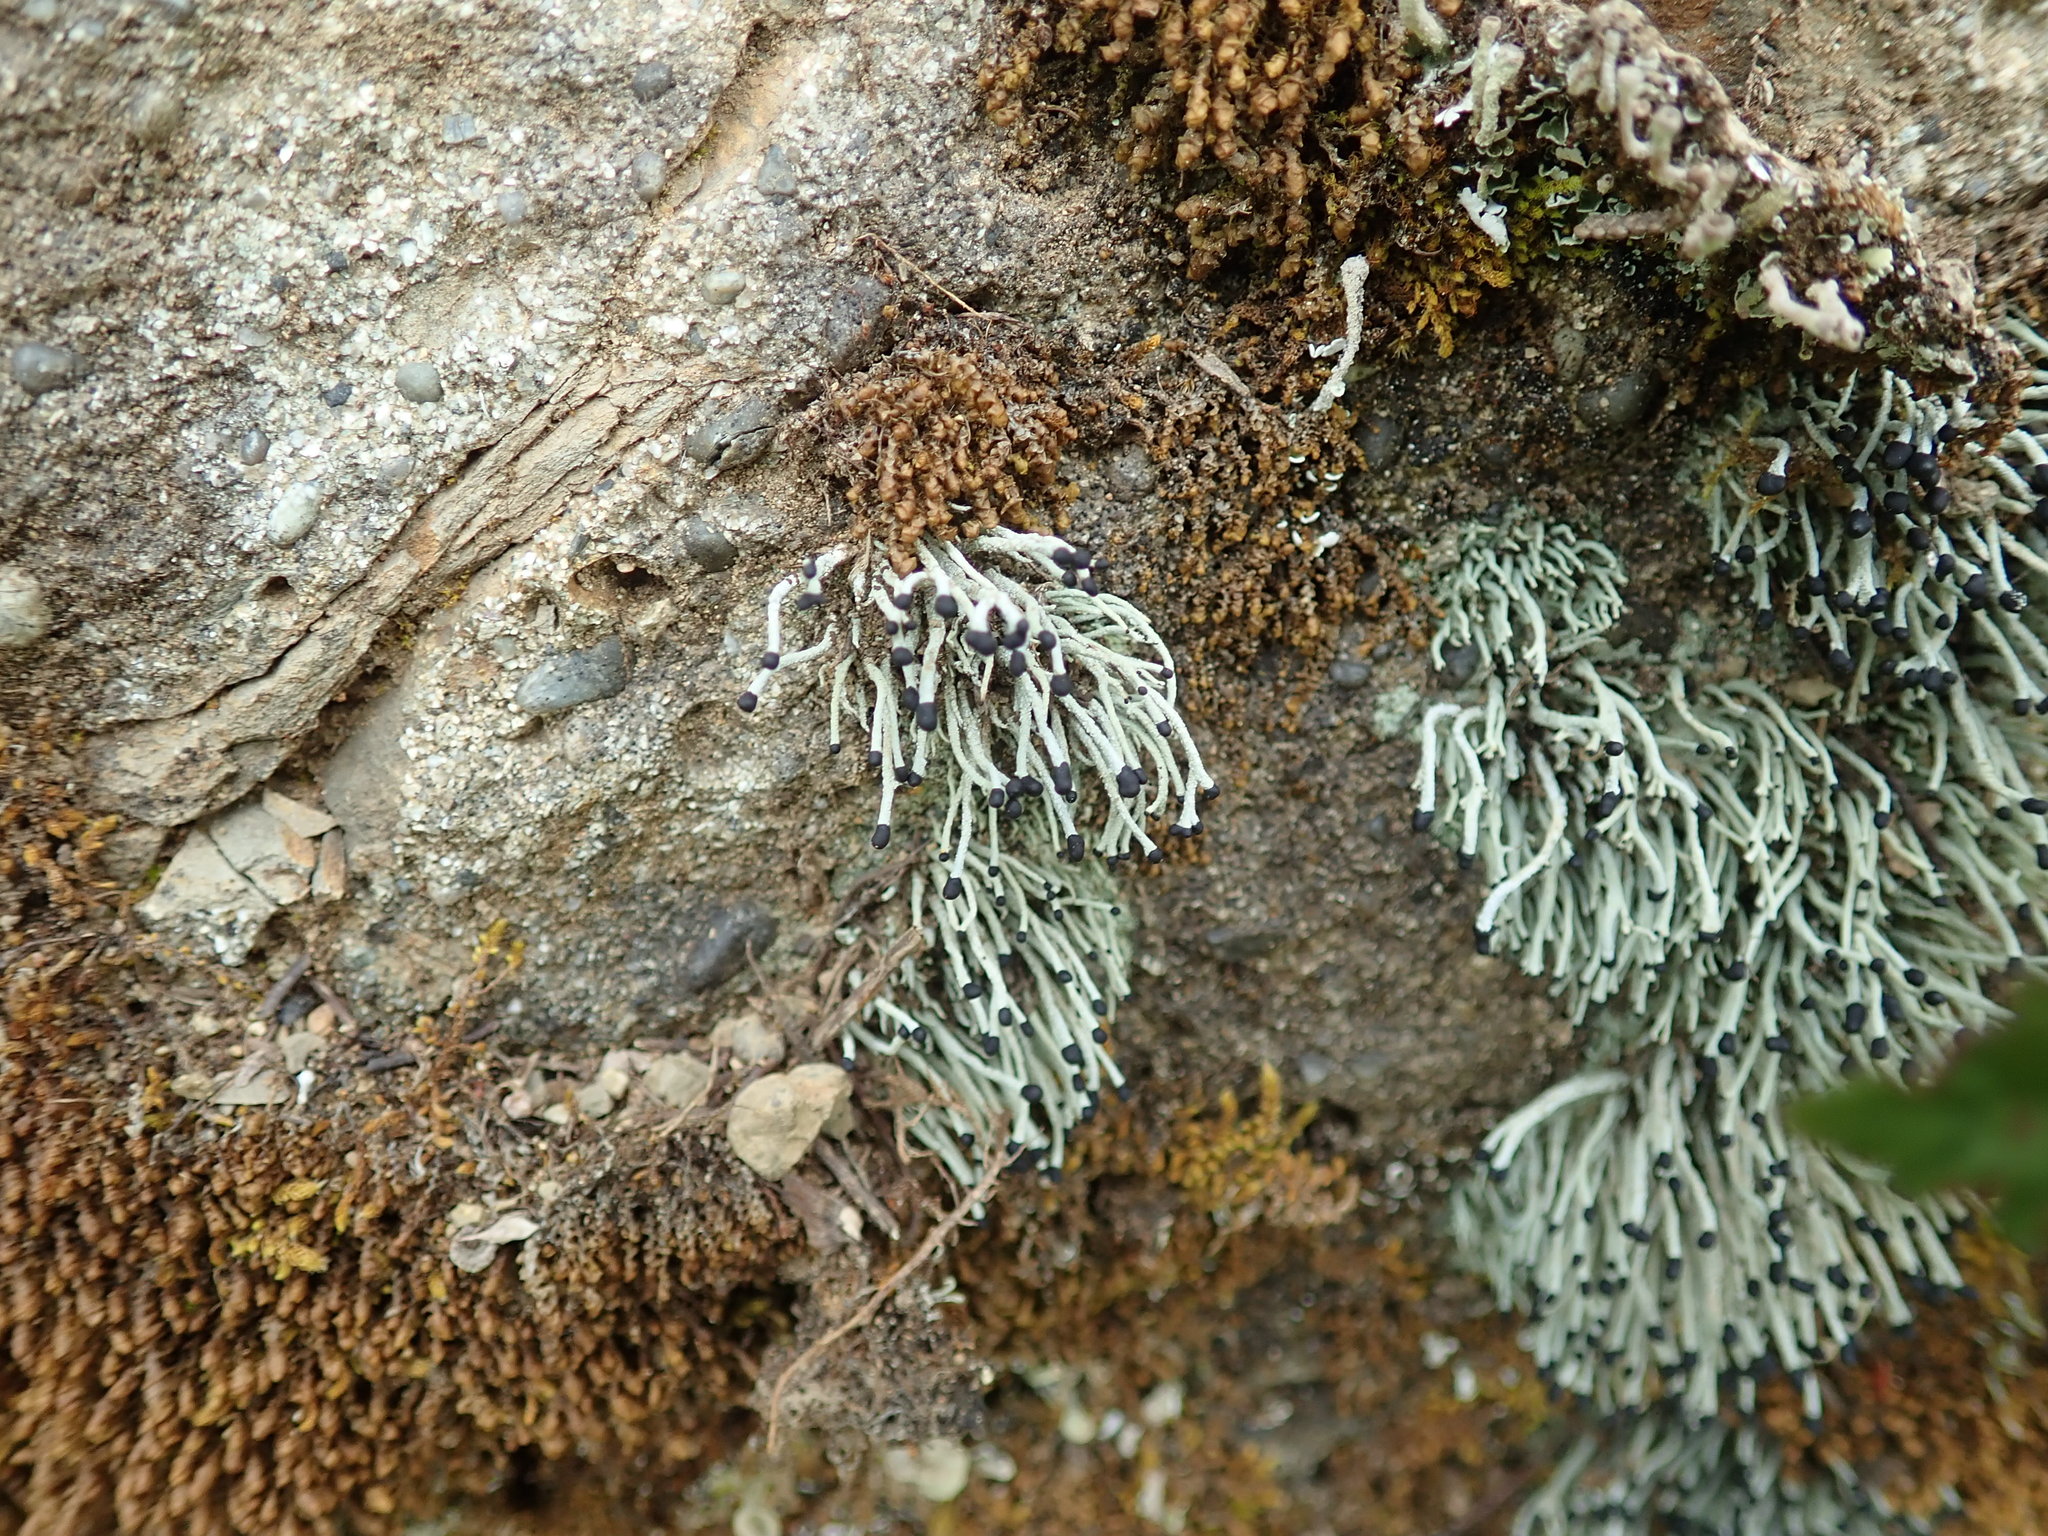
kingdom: Fungi
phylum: Ascomycota
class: Lecanoromycetes
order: Lecanorales
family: Cladoniaceae
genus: Pilophorus
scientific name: Pilophorus acicularis
